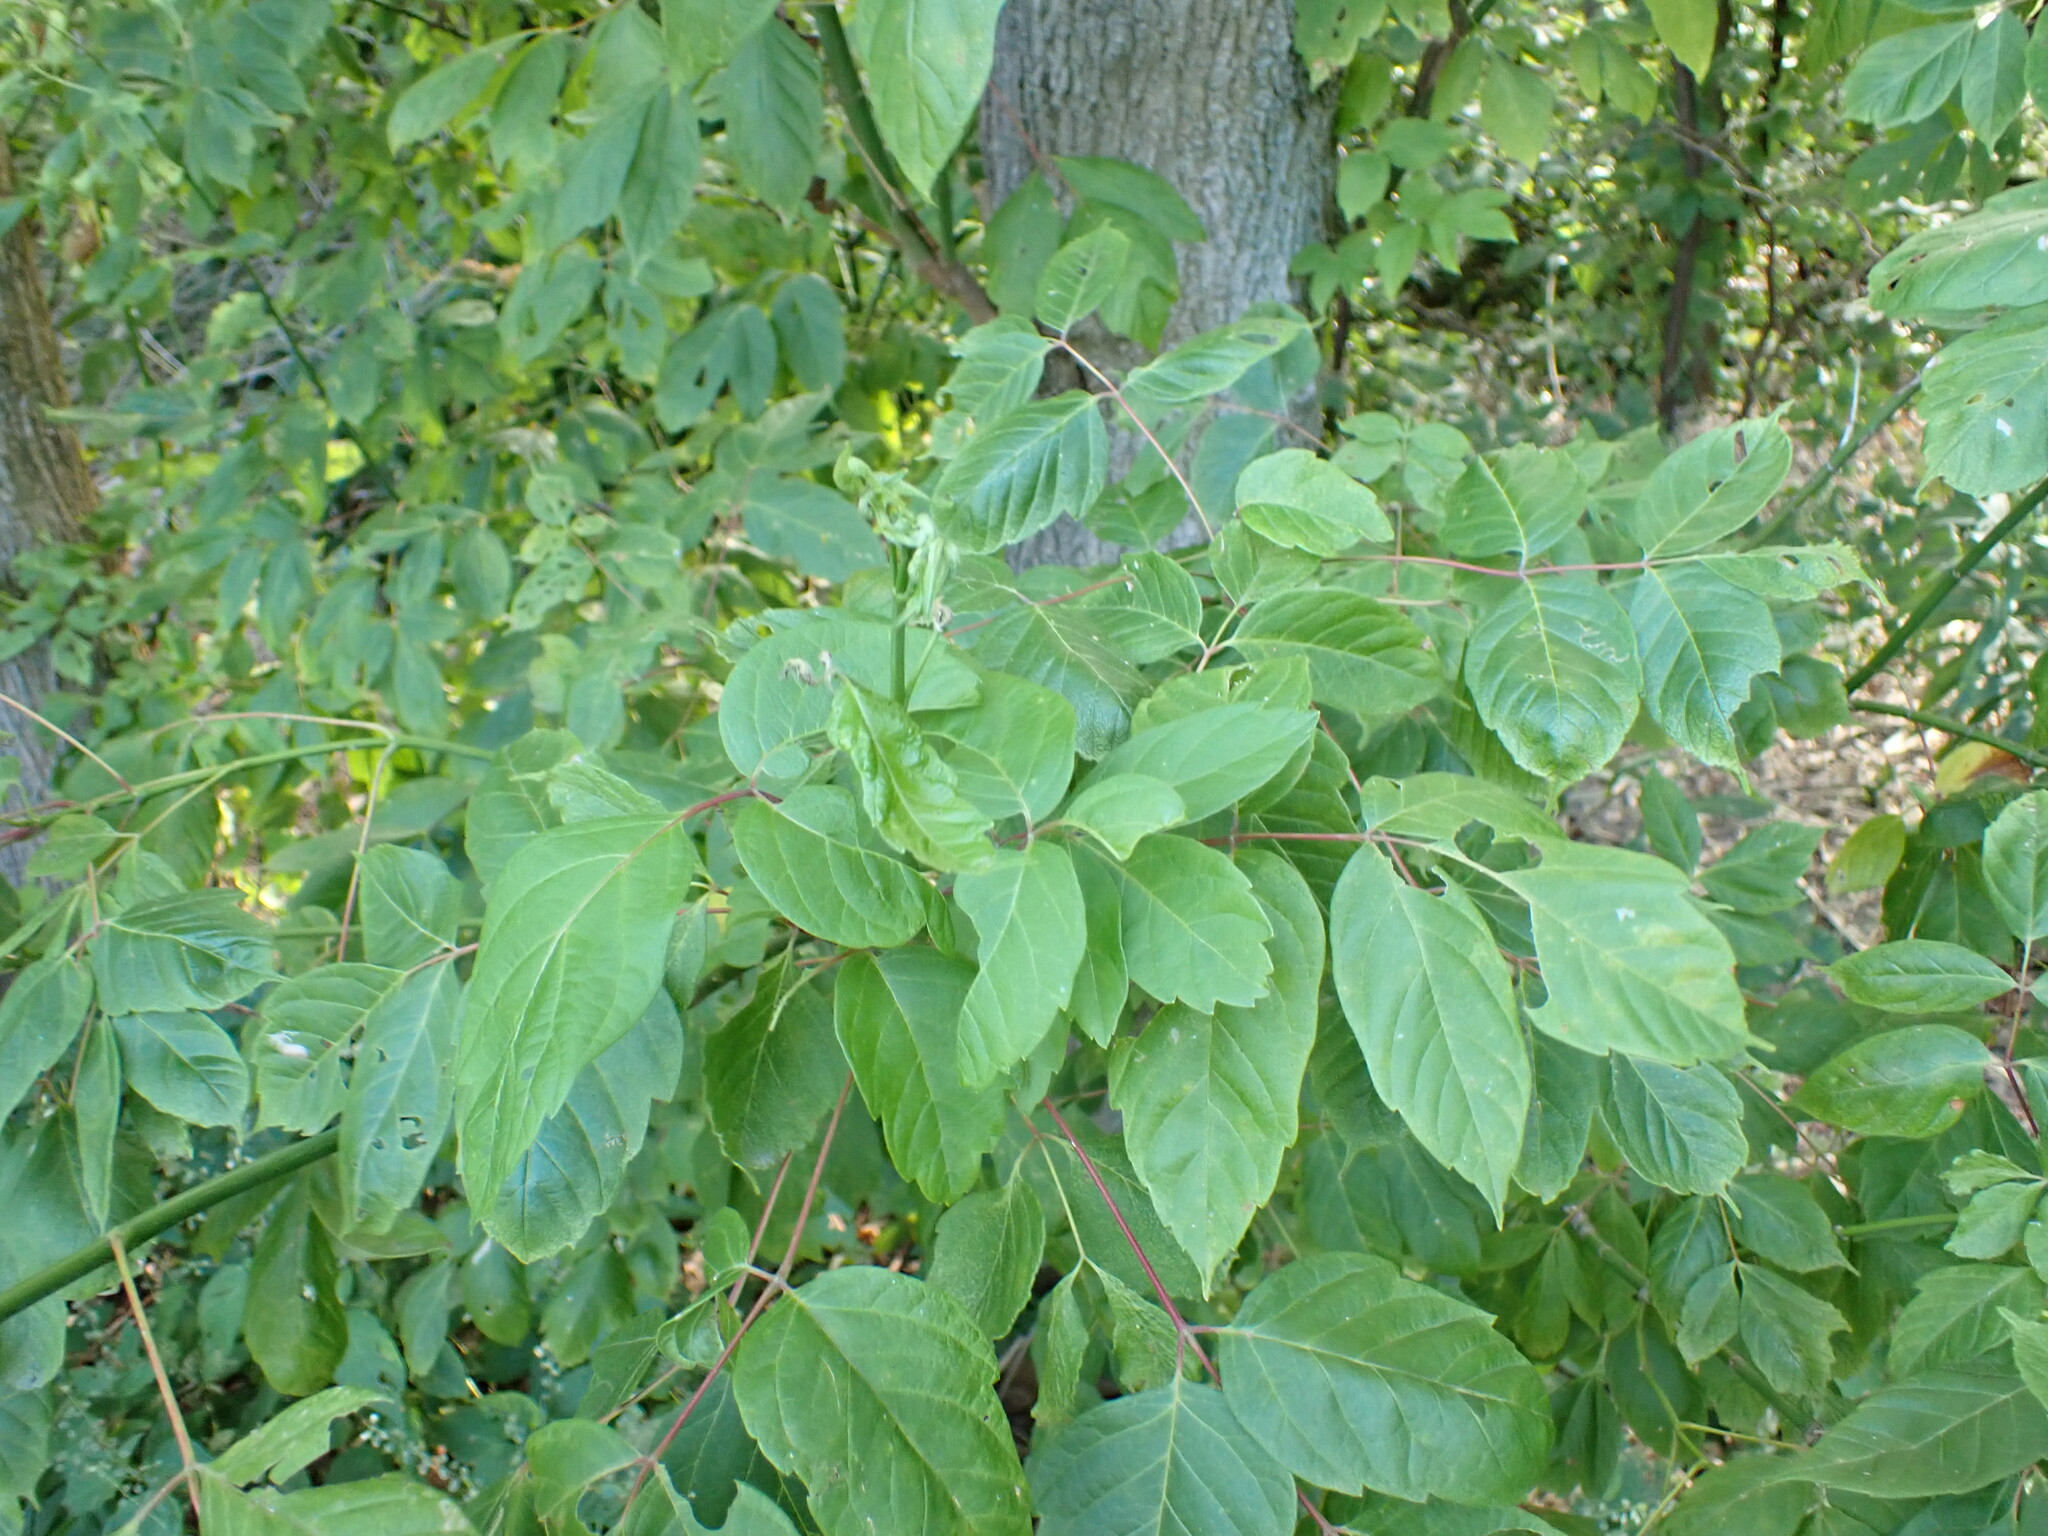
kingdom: Plantae
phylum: Tracheophyta
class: Magnoliopsida
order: Sapindales
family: Sapindaceae
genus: Acer
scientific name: Acer negundo
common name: Ashleaf maple
